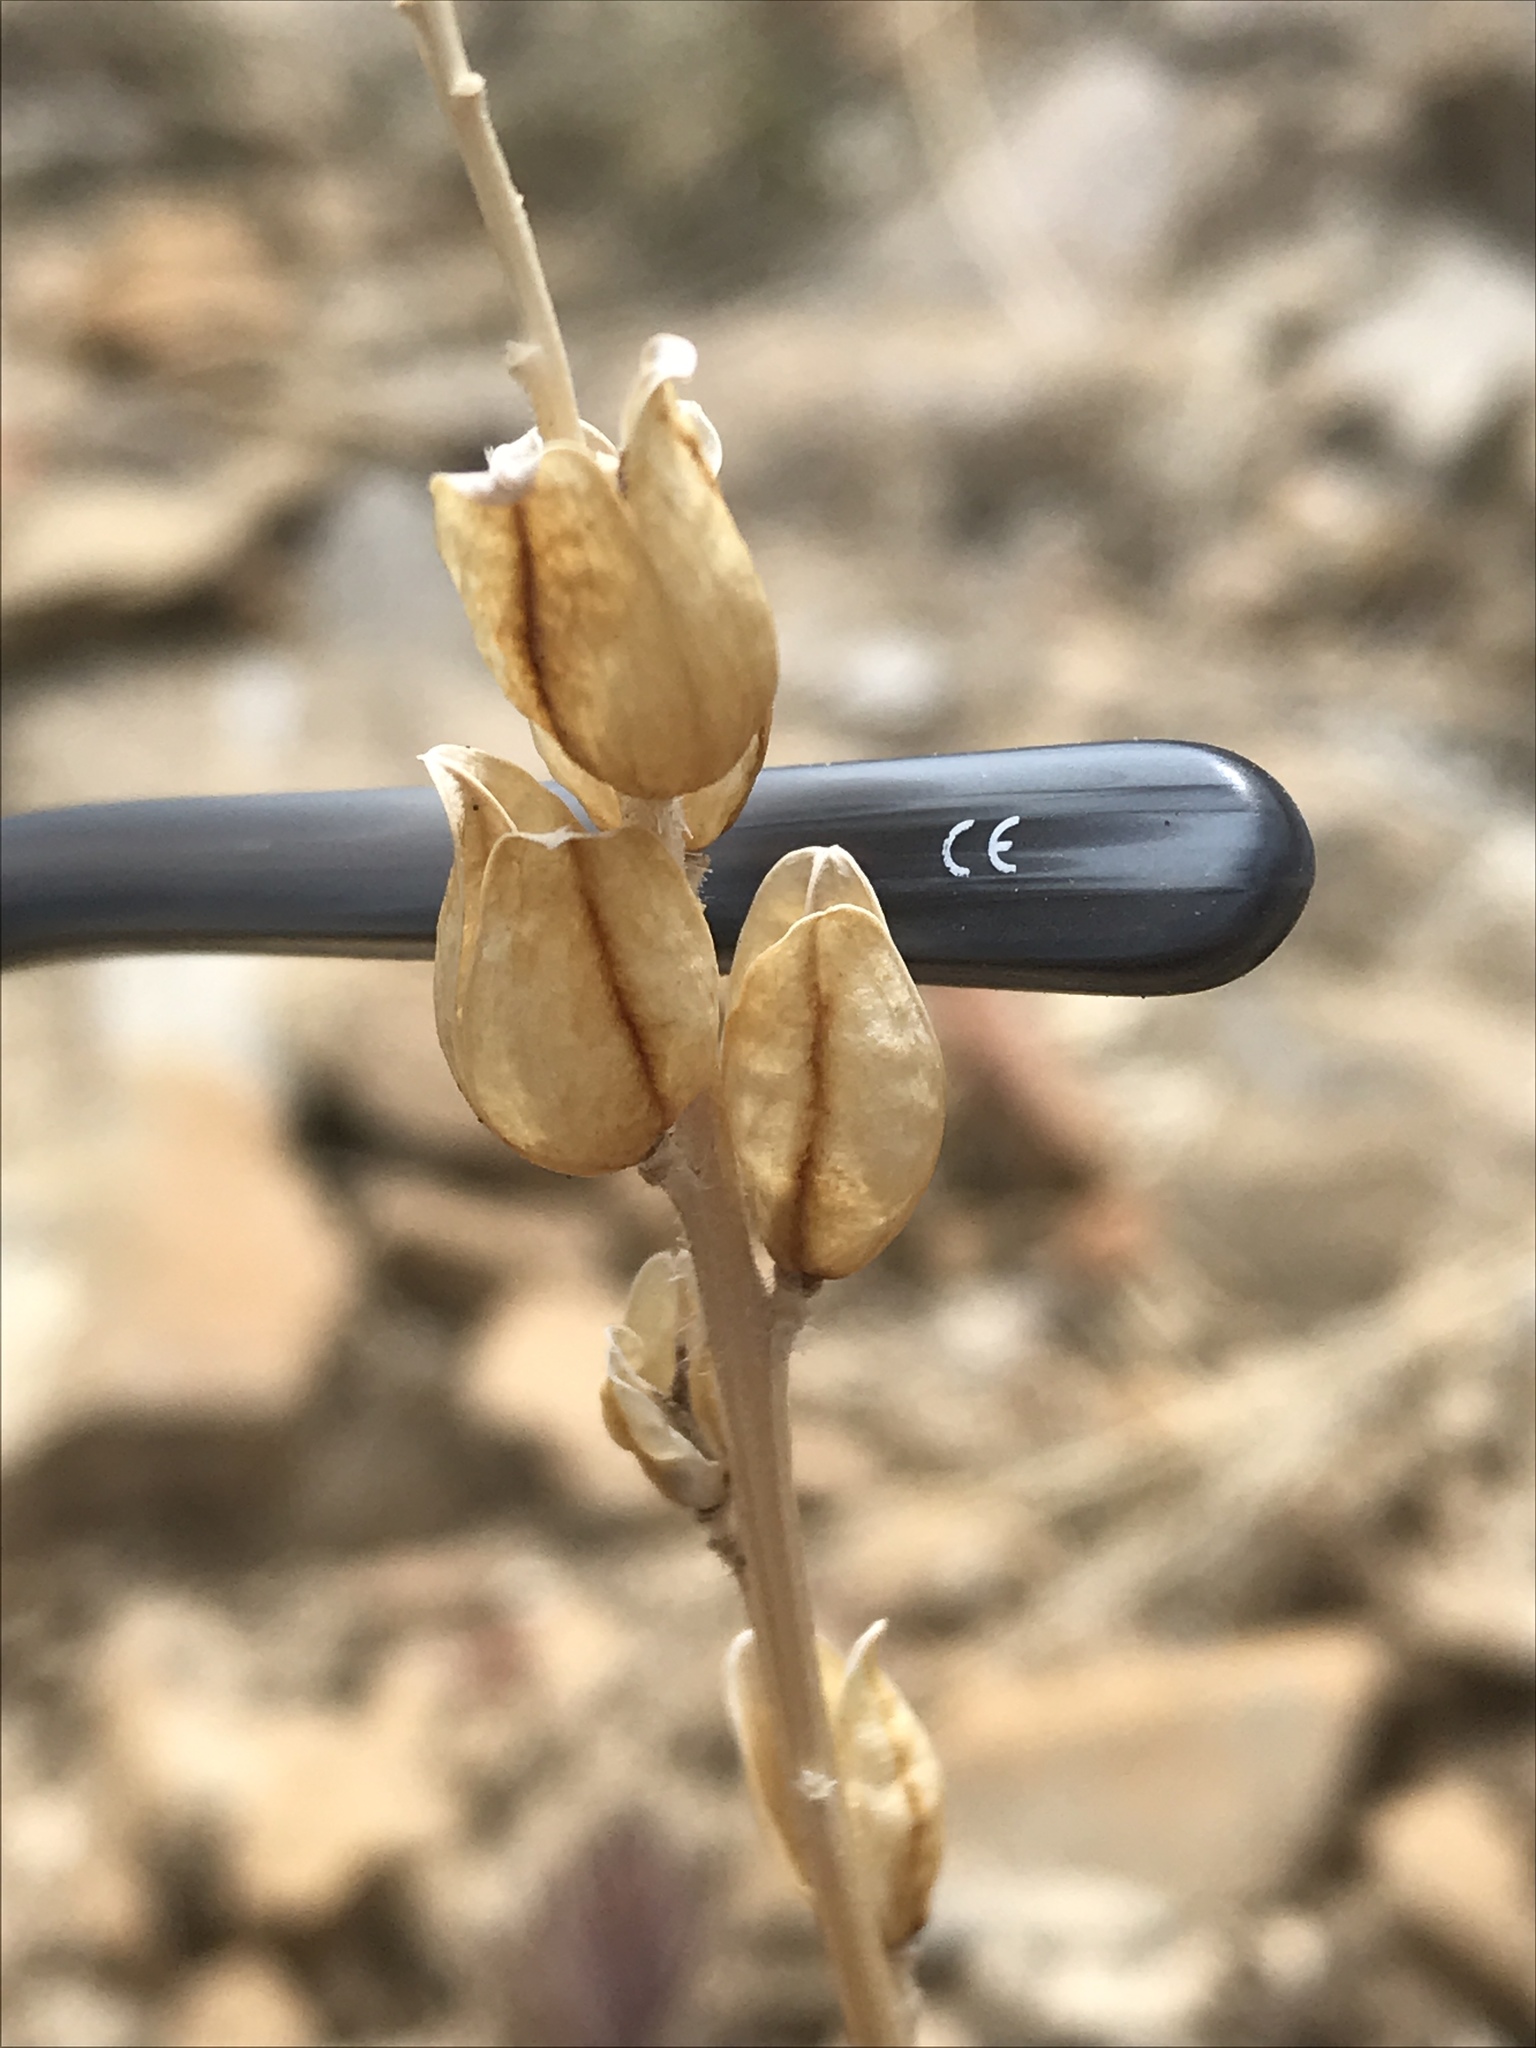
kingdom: Plantae
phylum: Tracheophyta
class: Magnoliopsida
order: Lamiales
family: Orobanchaceae
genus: Castilleja
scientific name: Castilleja chromosa
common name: Desert paintbrush
